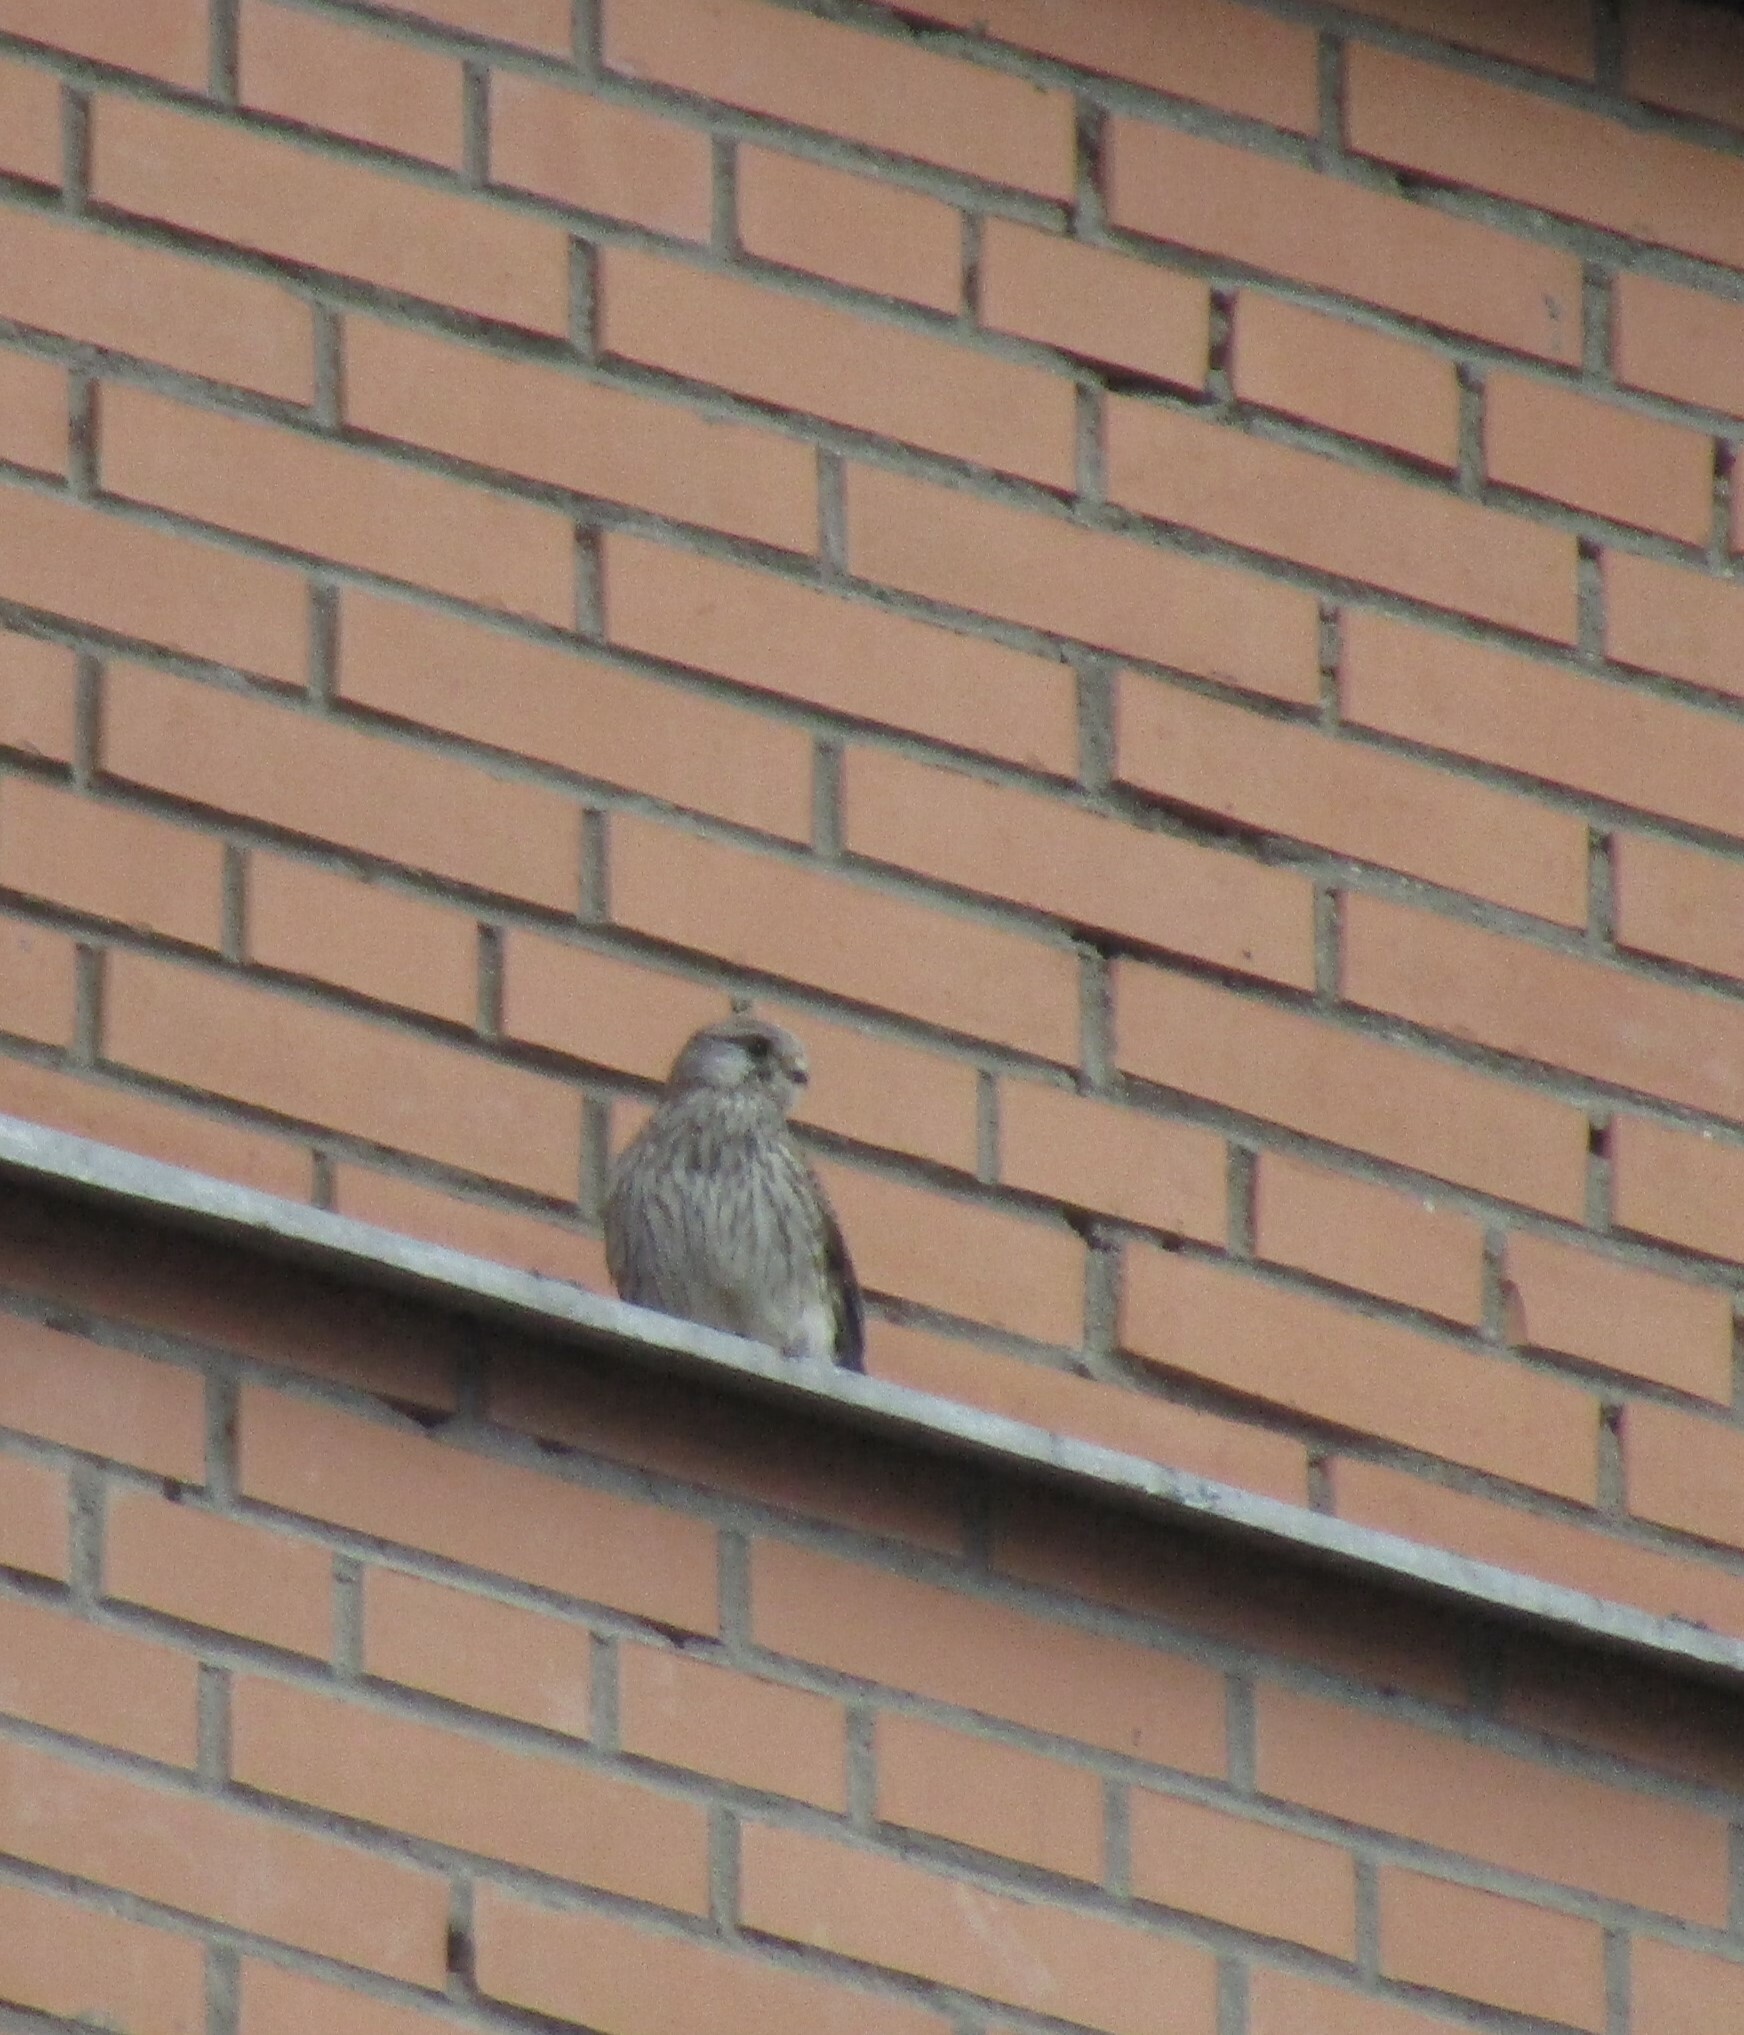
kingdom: Animalia
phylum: Chordata
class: Aves
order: Falconiformes
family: Falconidae
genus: Falco
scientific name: Falco tinnunculus
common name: Common kestrel
